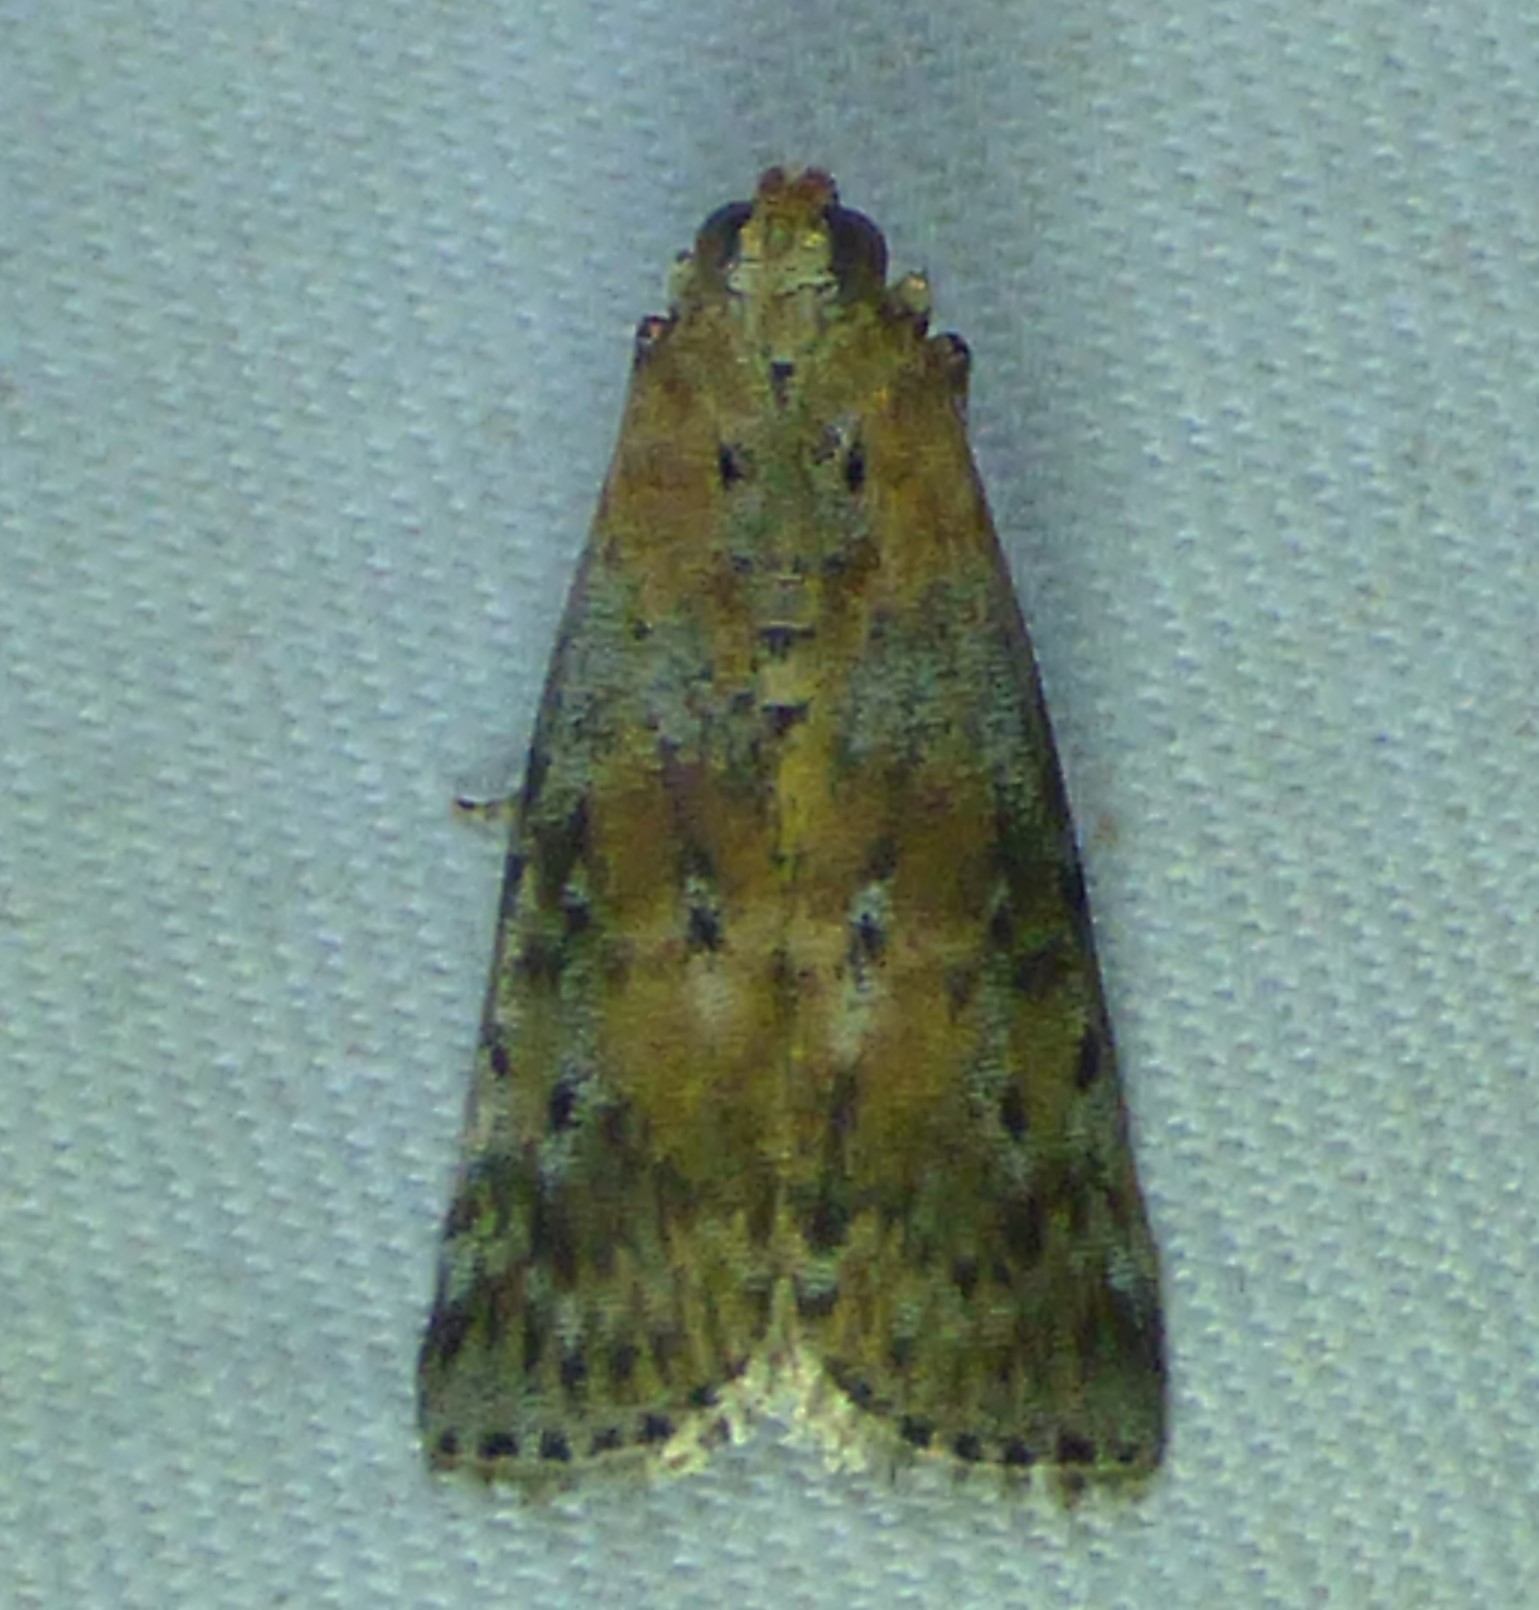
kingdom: Animalia
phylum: Arthropoda
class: Insecta
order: Lepidoptera
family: Pyralidae
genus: Sciota
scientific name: Sciota celtidella
